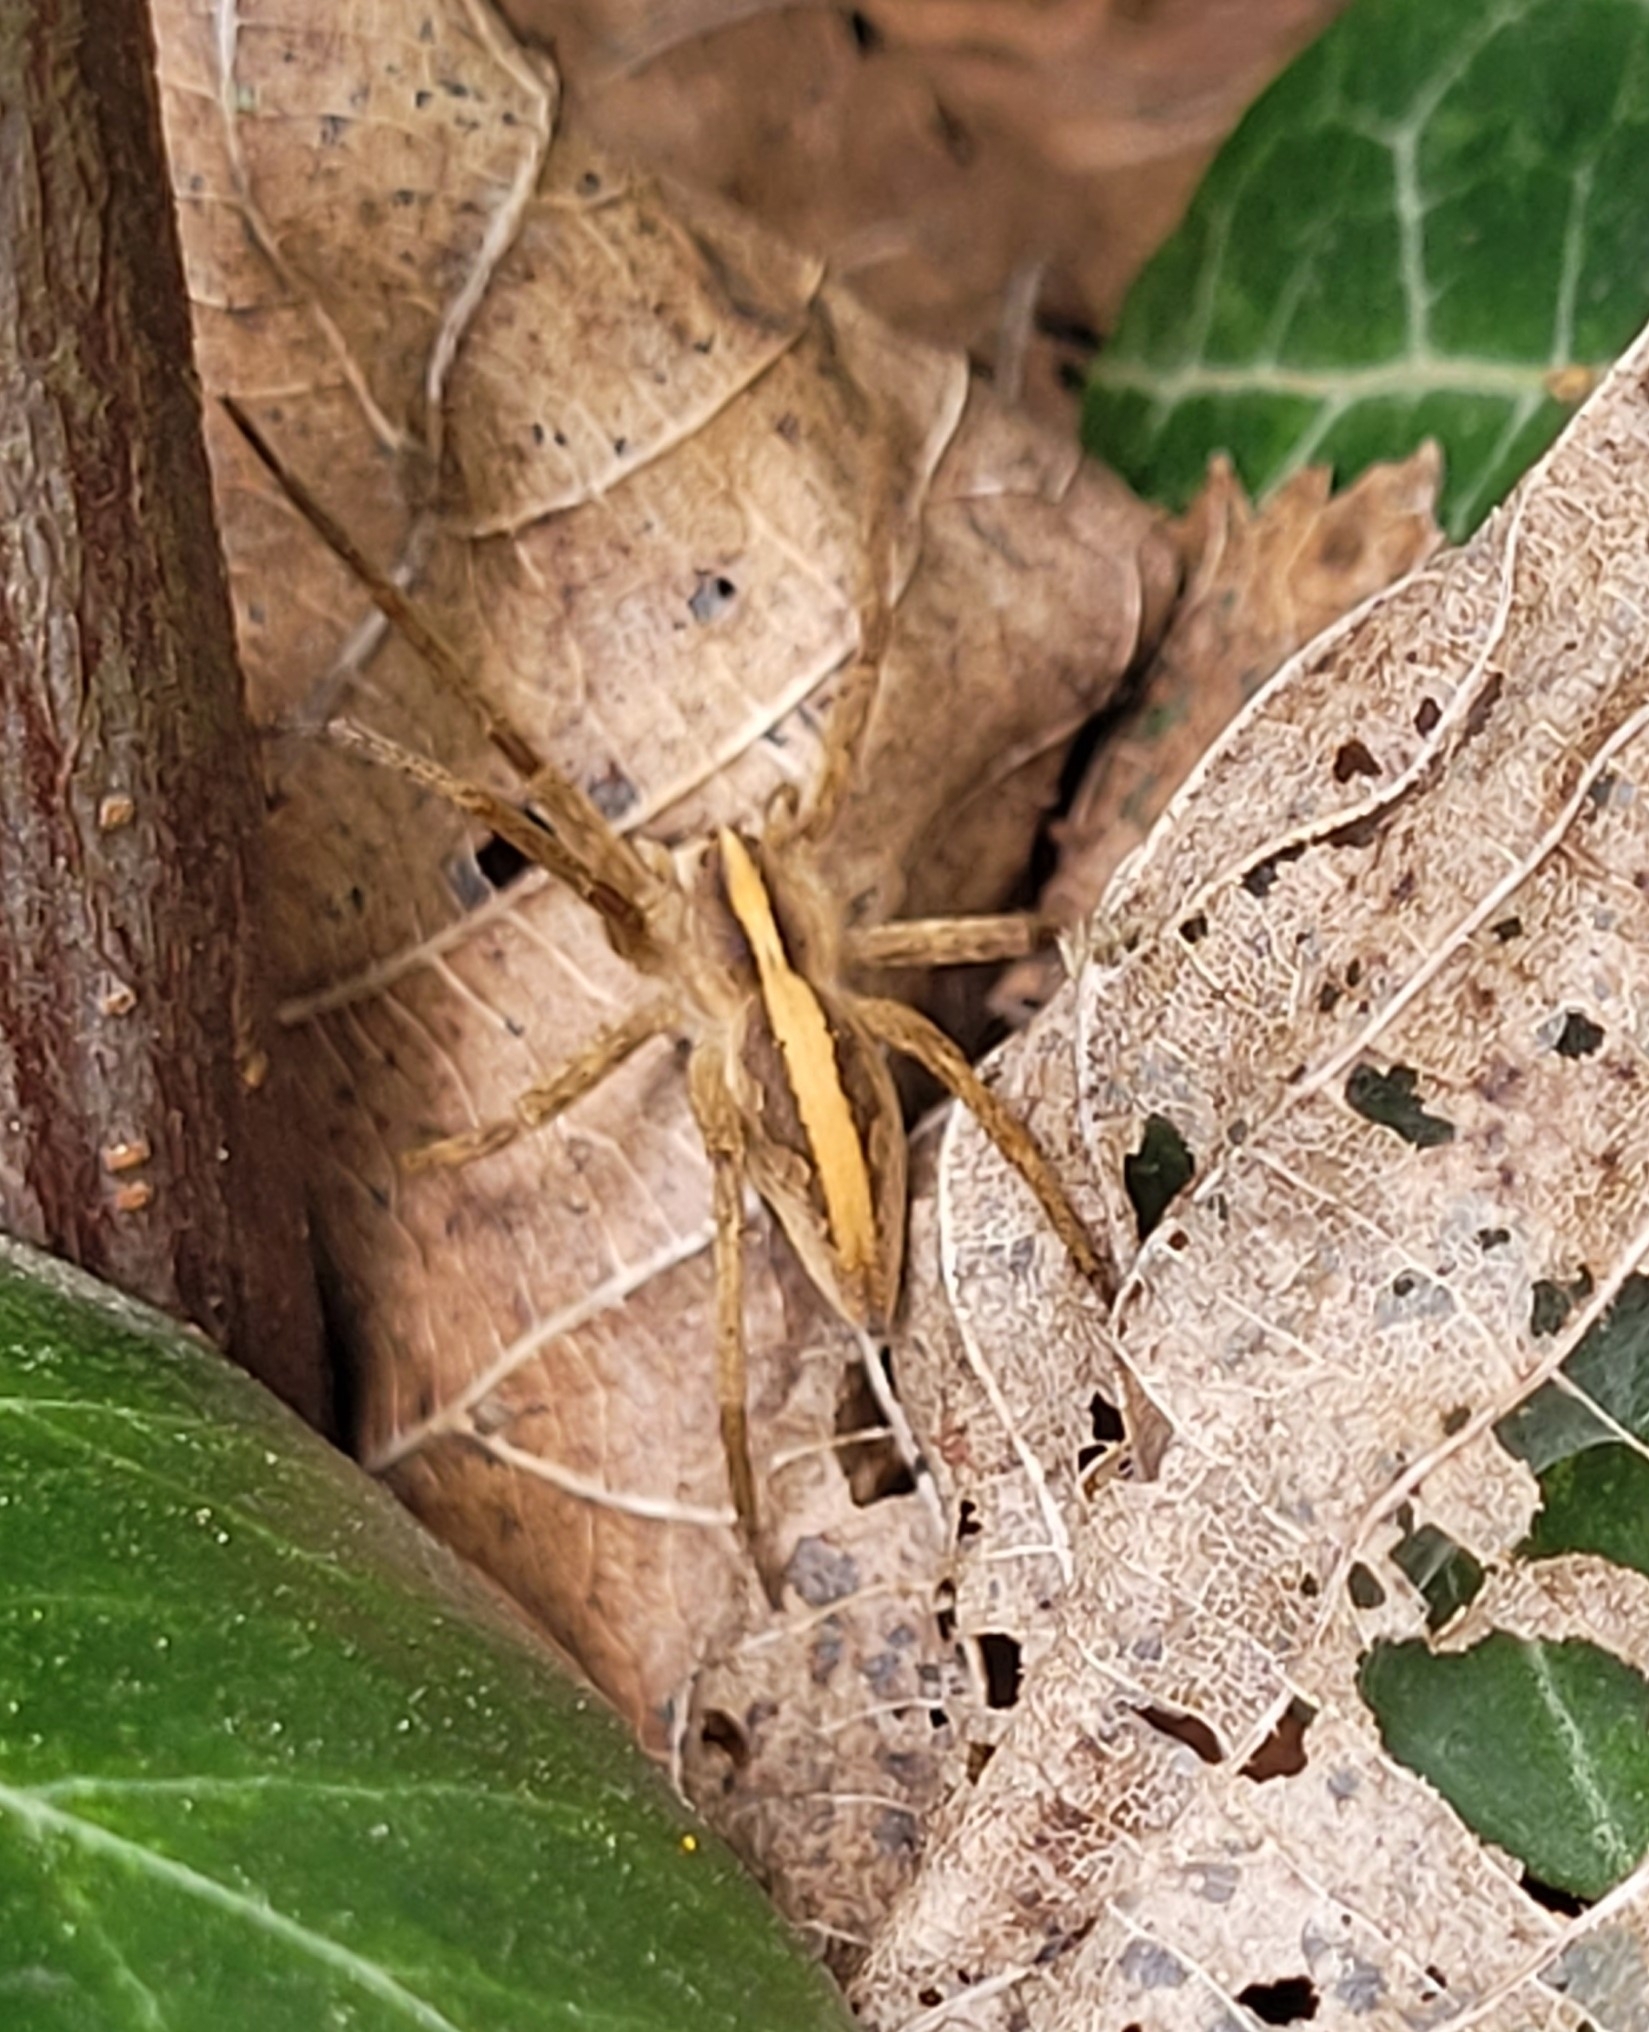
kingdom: Animalia
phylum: Arthropoda
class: Arachnida
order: Araneae
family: Pisauridae
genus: Pisaura
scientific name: Pisaura mirabilis
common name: Tent spider
